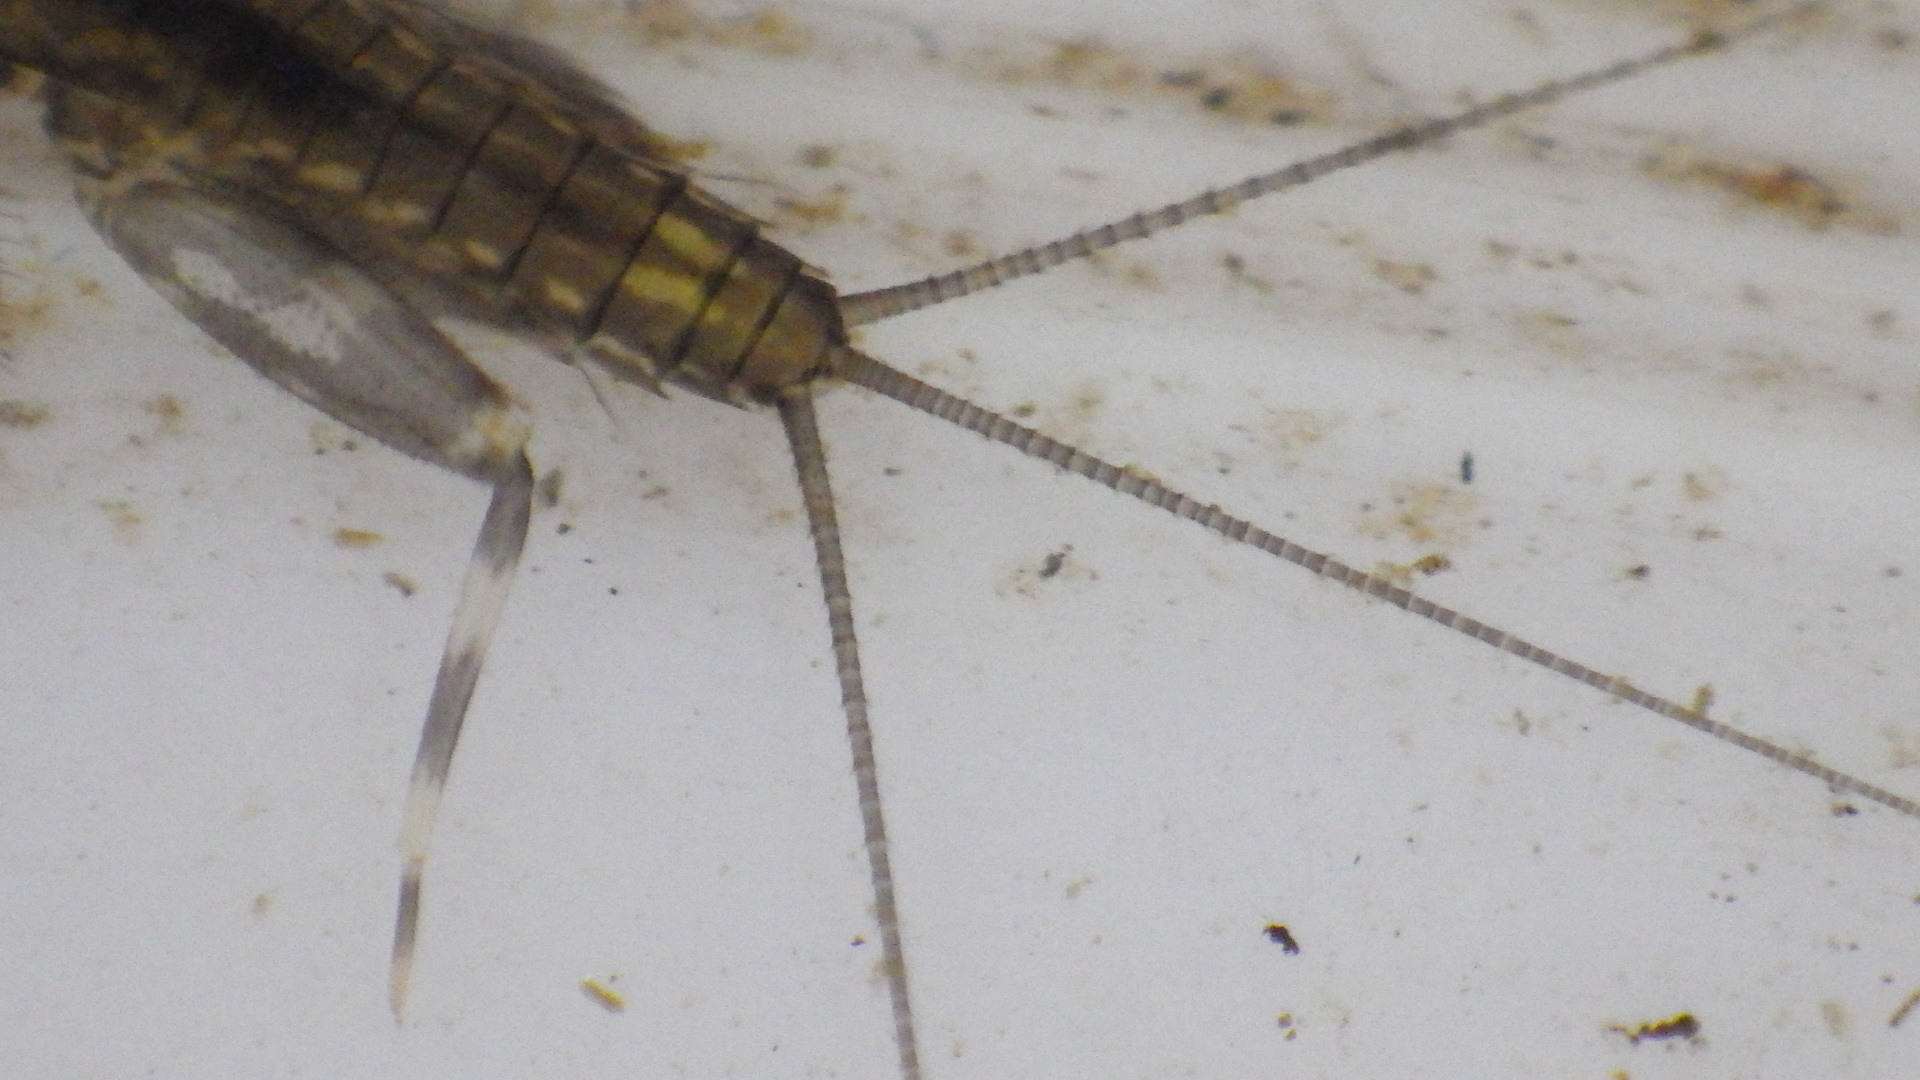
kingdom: Animalia
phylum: Arthropoda
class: Insecta
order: Ephemeroptera
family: Heptageniidae
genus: Stenacron
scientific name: Stenacron carolina
